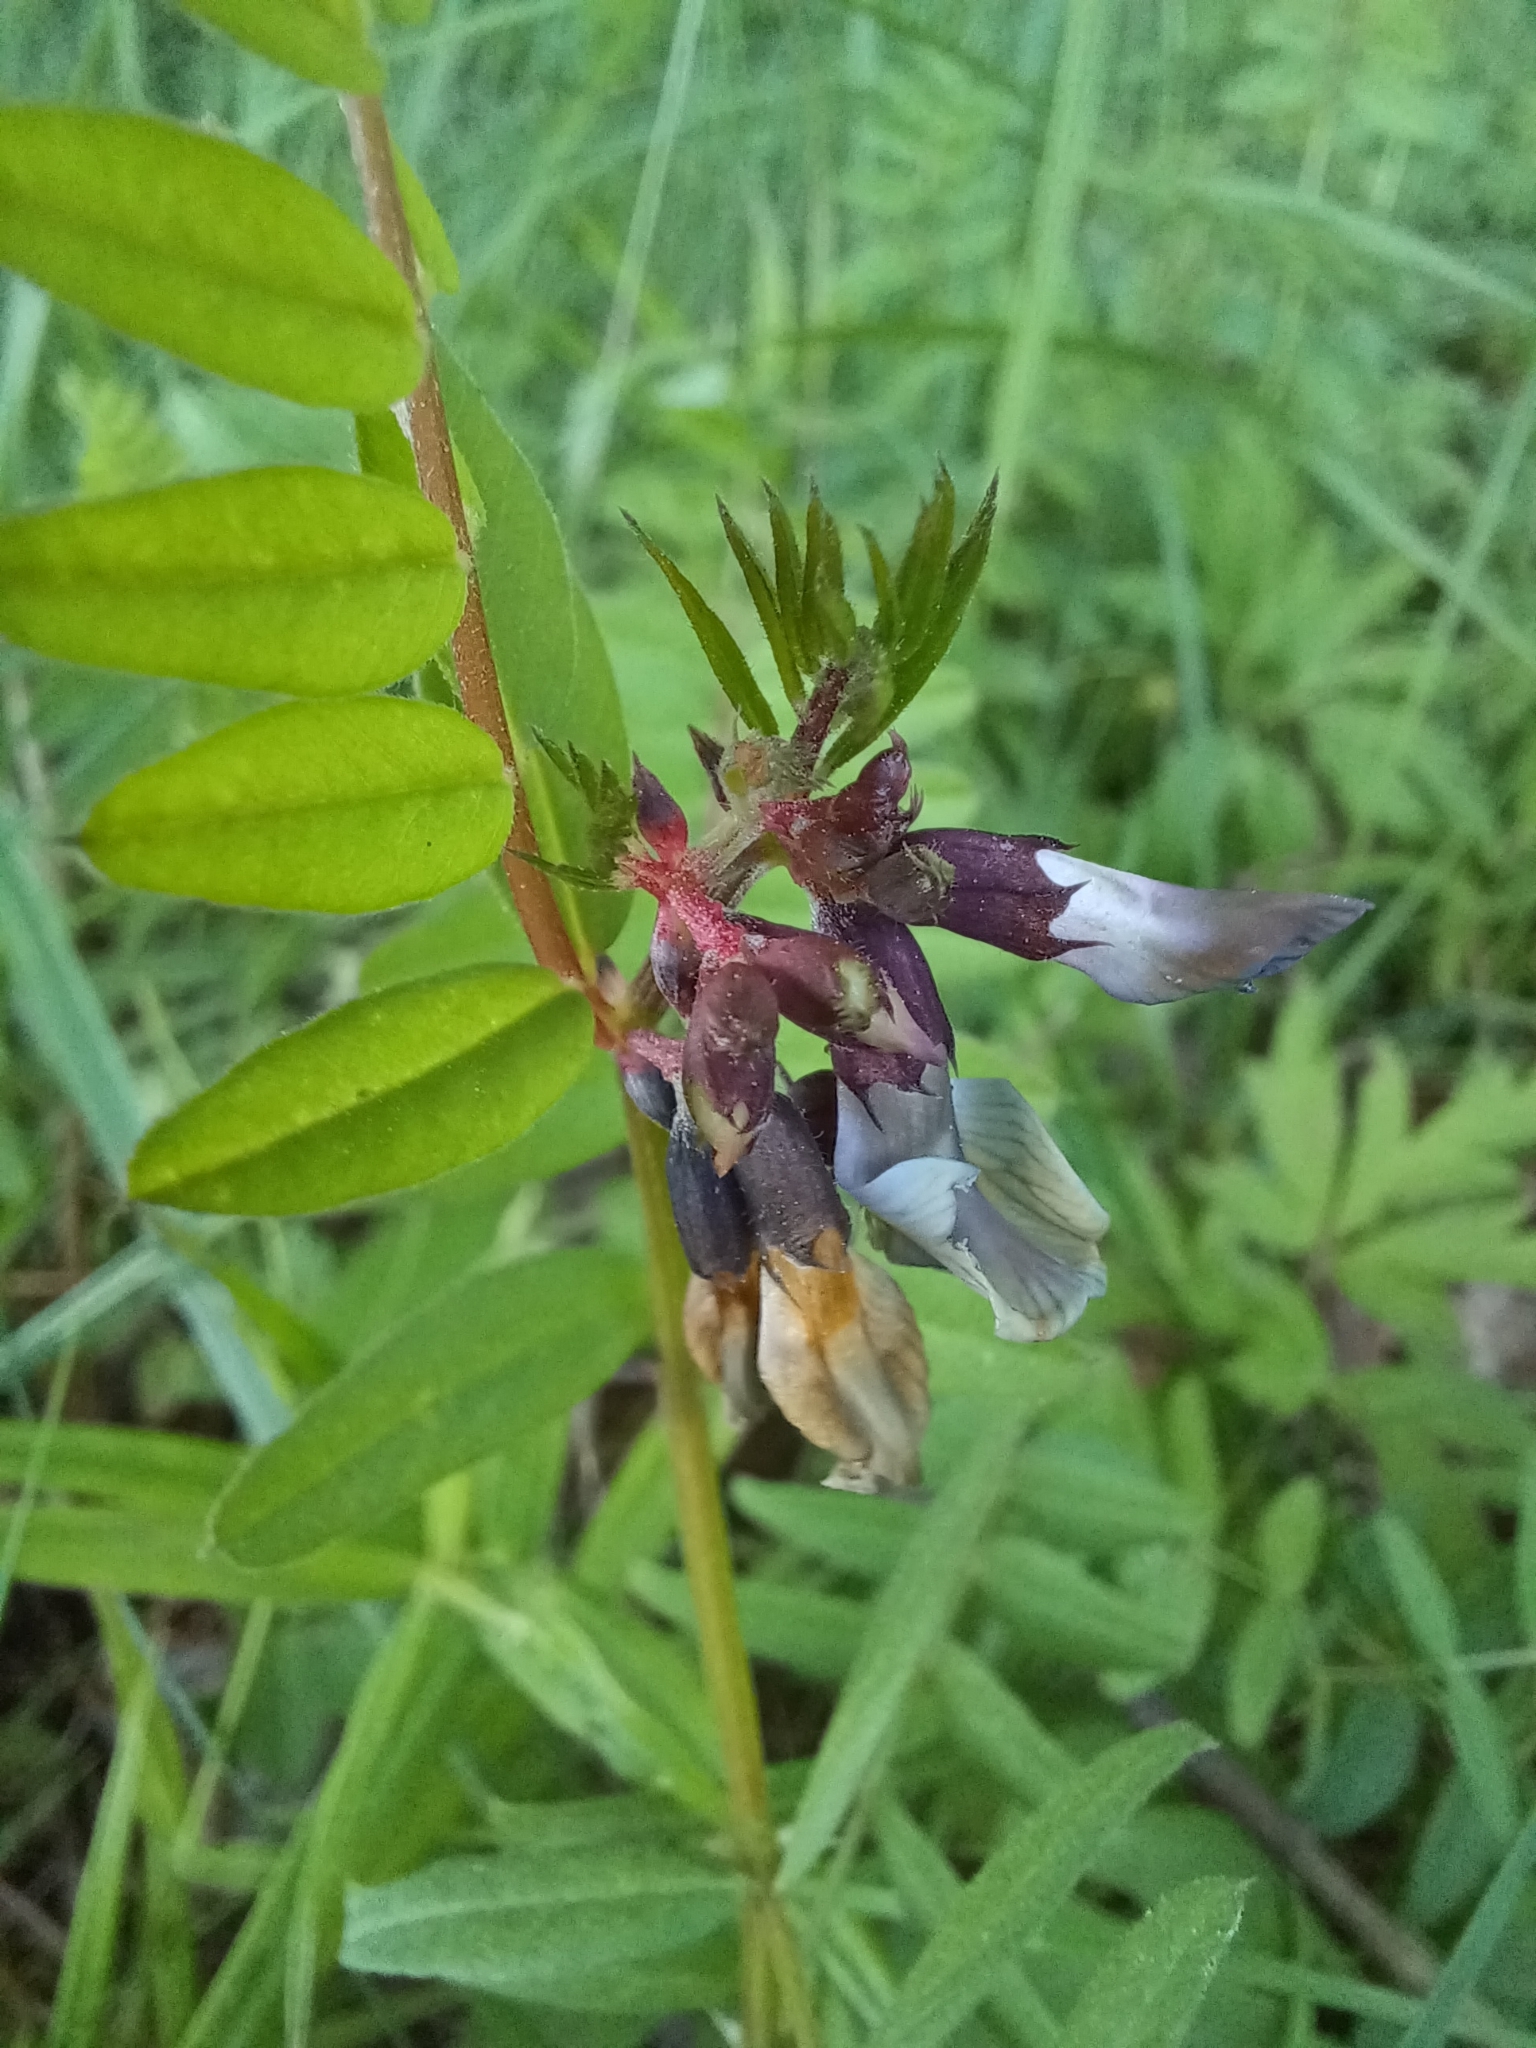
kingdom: Plantae
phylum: Tracheophyta
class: Magnoliopsida
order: Fabales
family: Fabaceae
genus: Vicia
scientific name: Vicia sepium
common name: Bush vetch
